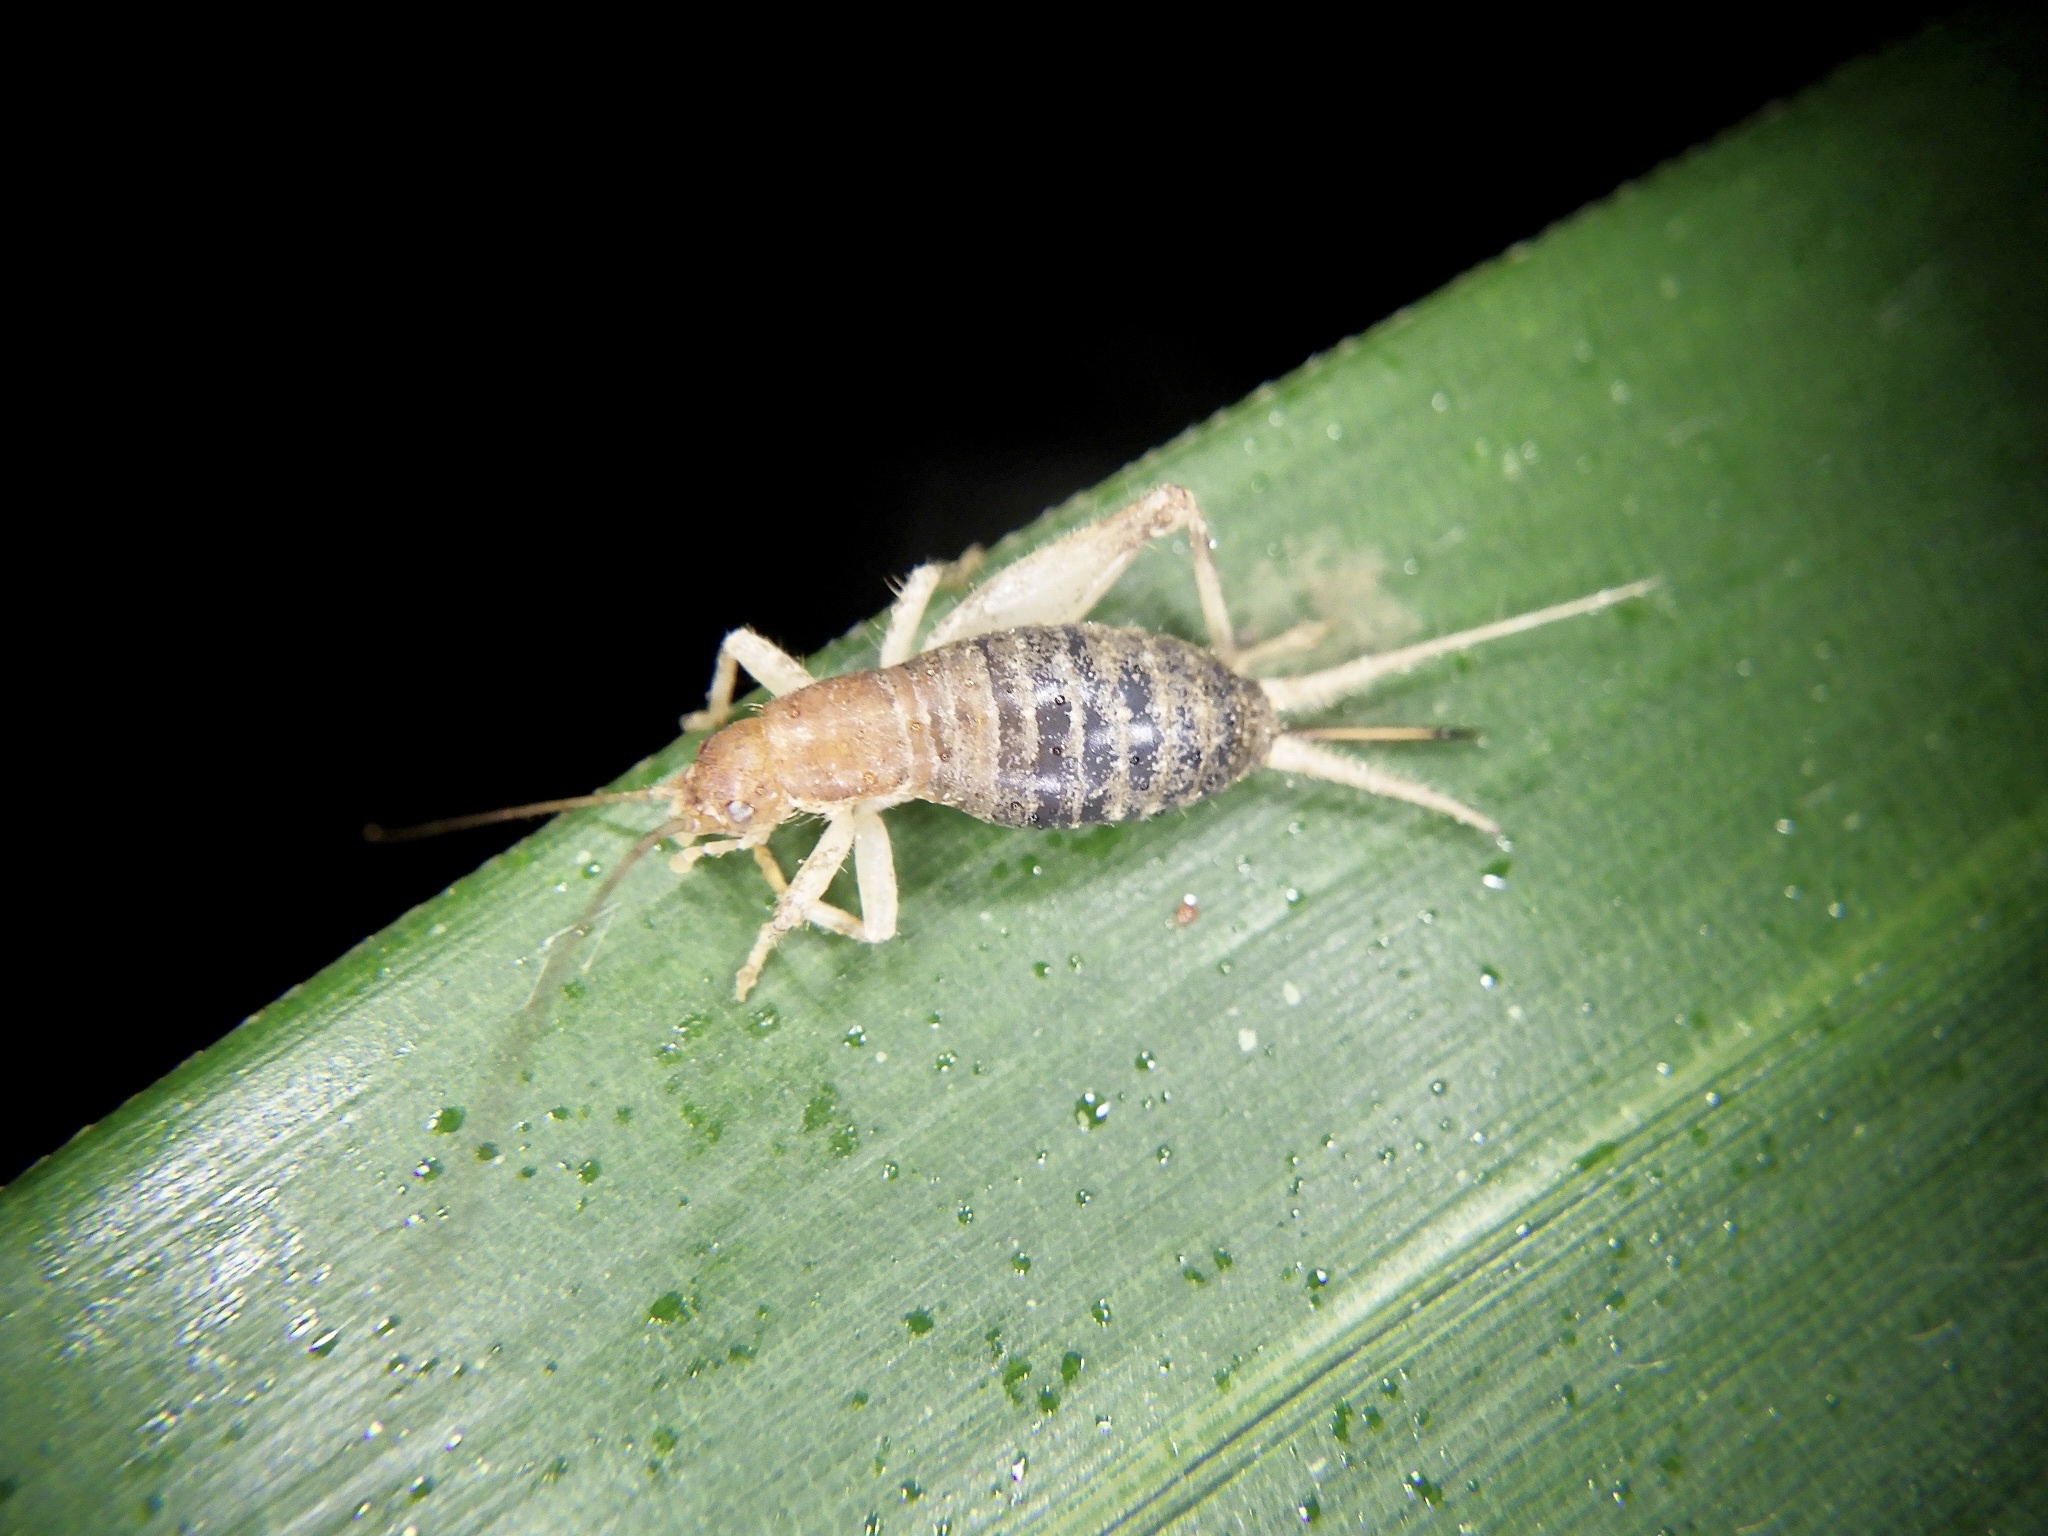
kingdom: Animalia
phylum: Arthropoda
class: Insecta
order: Orthoptera
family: Mogoplistidae
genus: Ornebius
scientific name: Ornebius kanetataki
